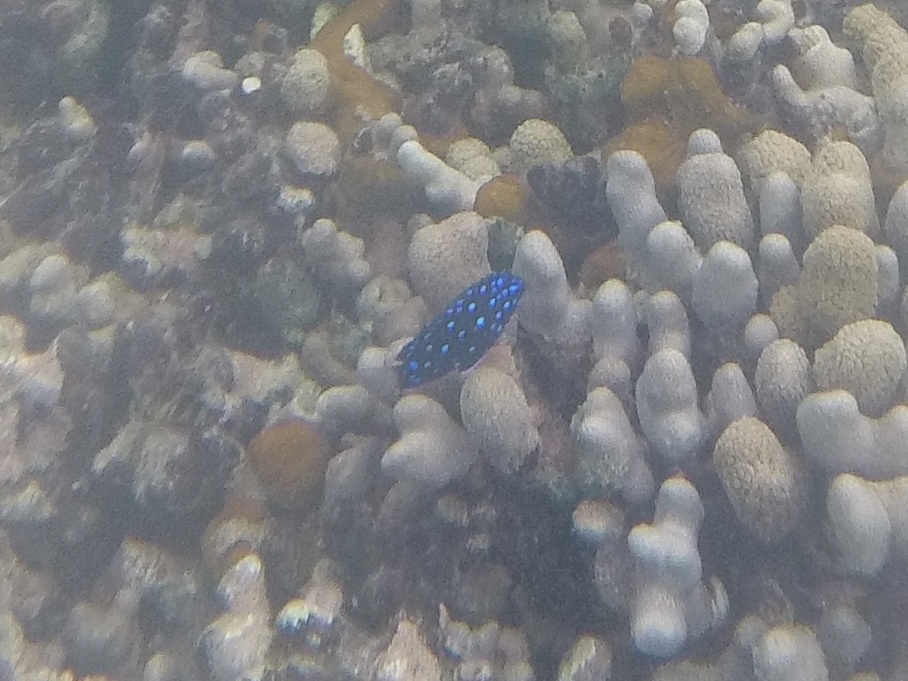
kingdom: Animalia
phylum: Chordata
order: Perciformes
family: Pomacentridae
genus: Microspathodon
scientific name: Microspathodon chrysurus
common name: Yellowtail damselfish
